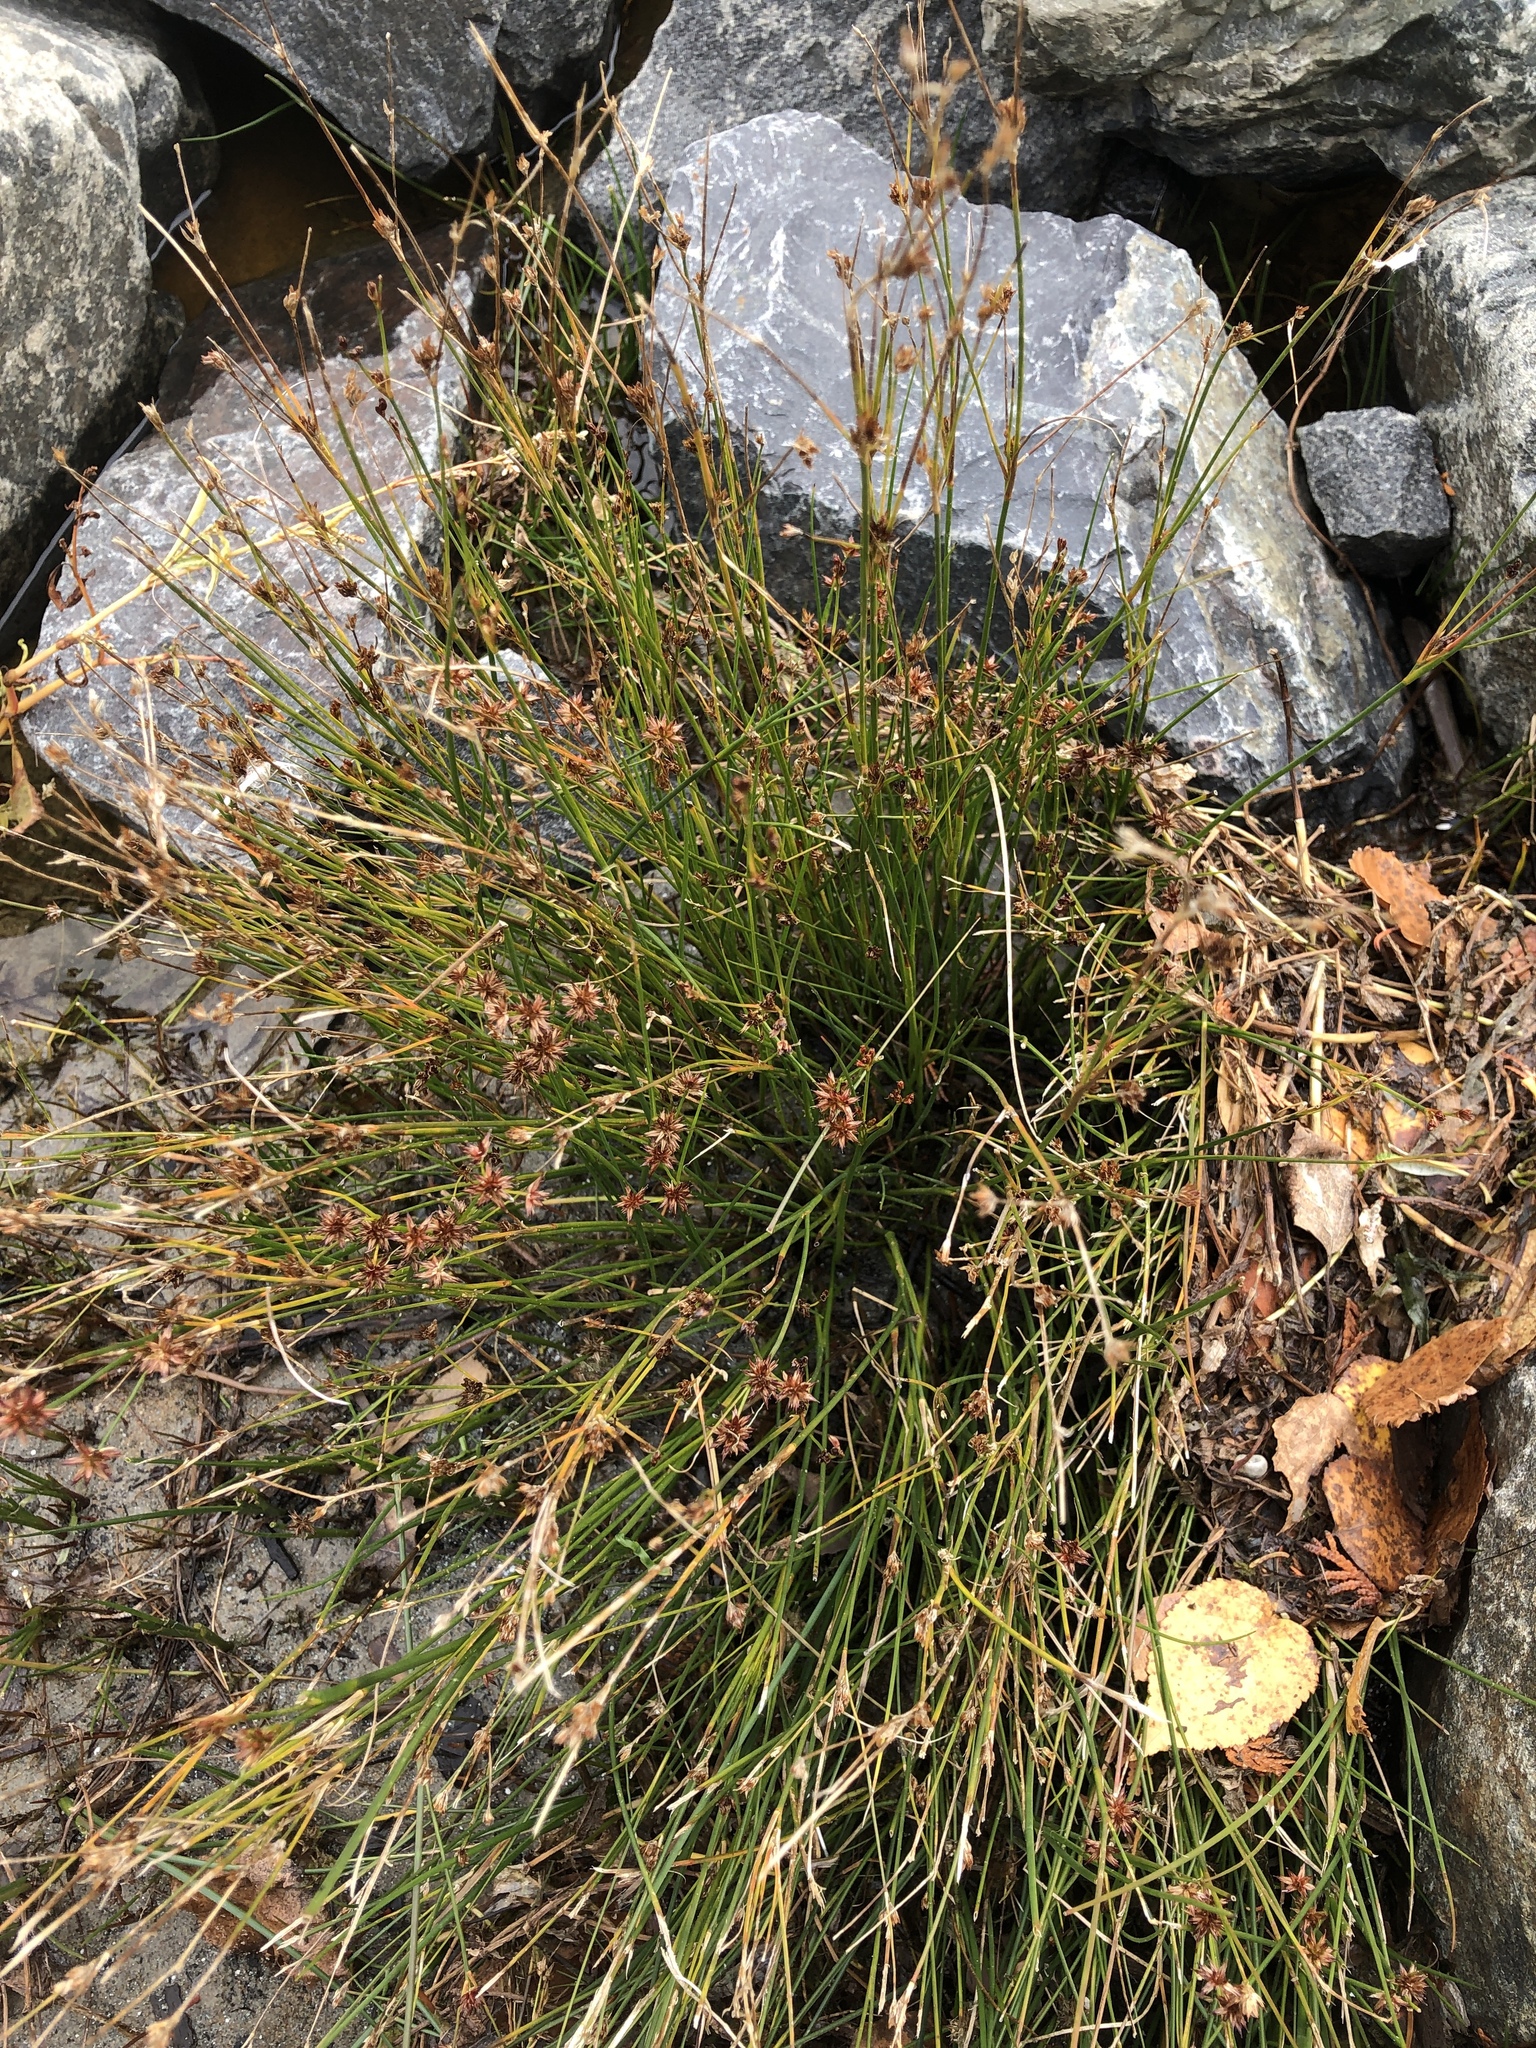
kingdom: Plantae
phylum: Tracheophyta
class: Liliopsida
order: Poales
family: Juncaceae
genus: Juncus
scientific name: Juncus nodosus
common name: Knotted rush
